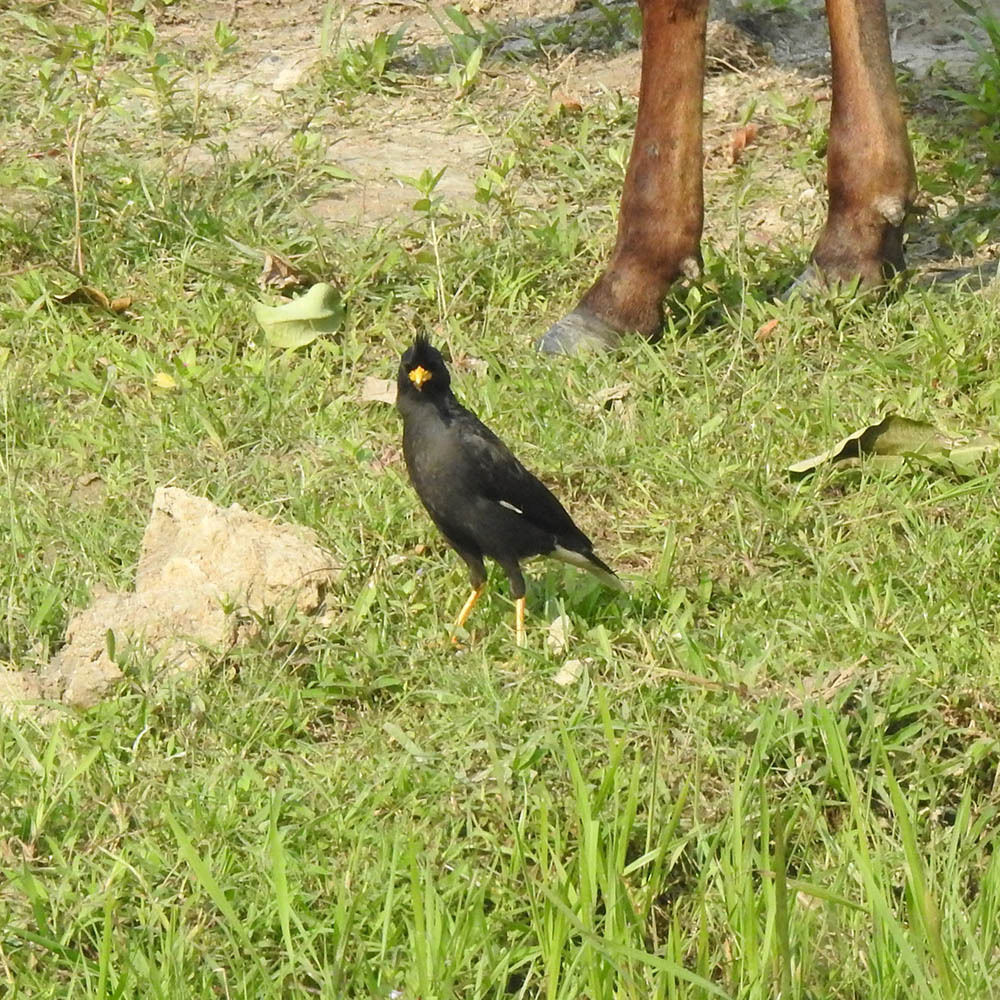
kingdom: Animalia
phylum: Chordata
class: Aves
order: Passeriformes
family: Sturnidae
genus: Acridotheres
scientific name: Acridotheres grandis
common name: Great myna
